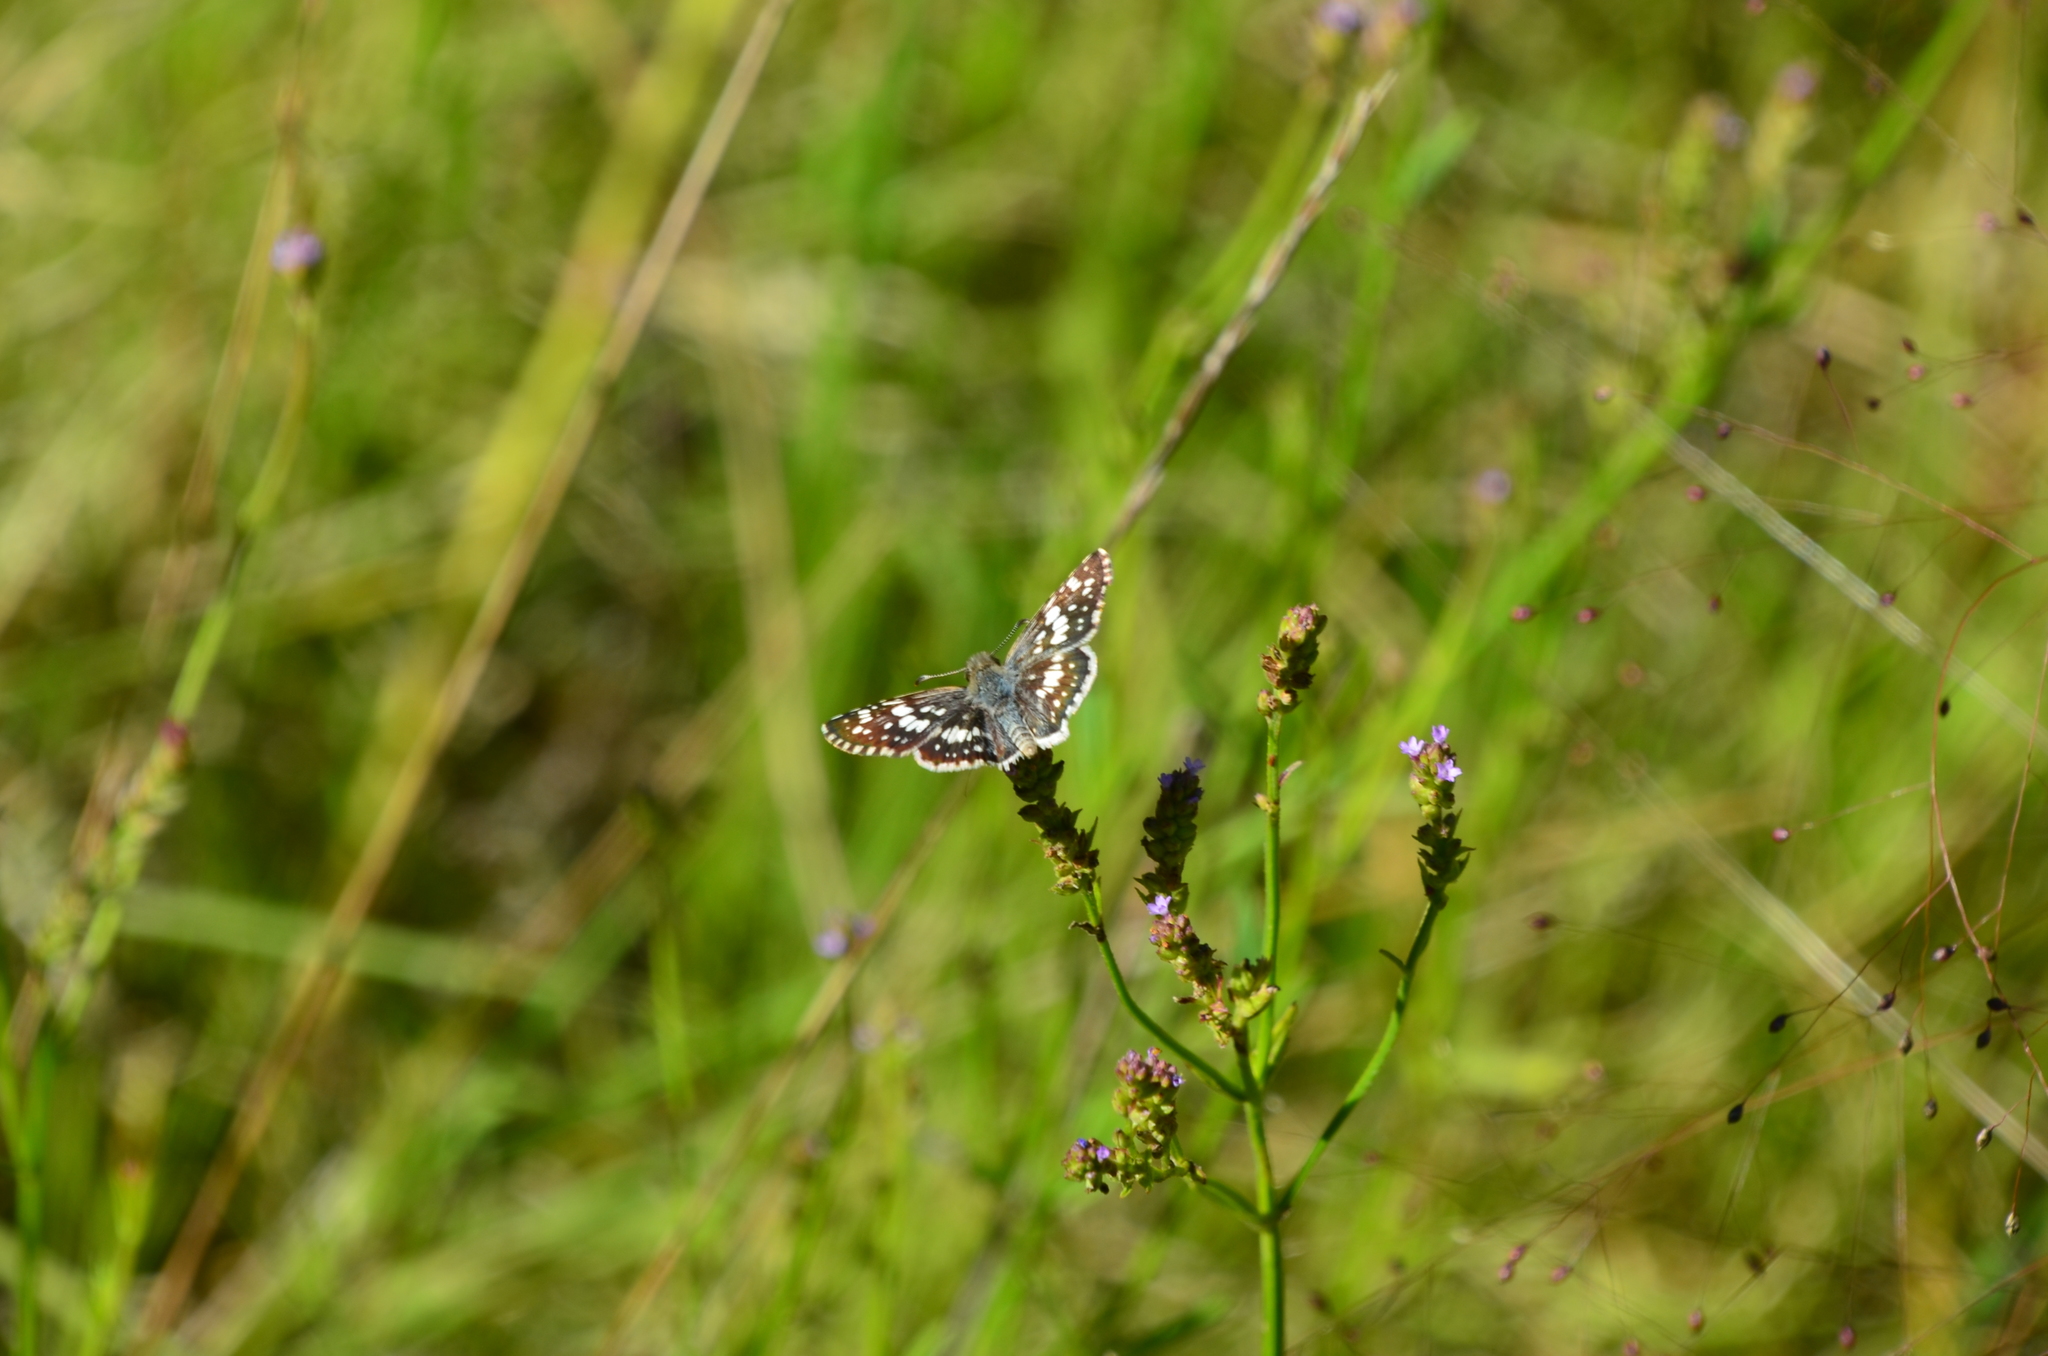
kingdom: Animalia
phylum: Arthropoda
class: Insecta
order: Lepidoptera
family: Hesperiidae
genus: Burnsius
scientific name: Burnsius orcynoides
